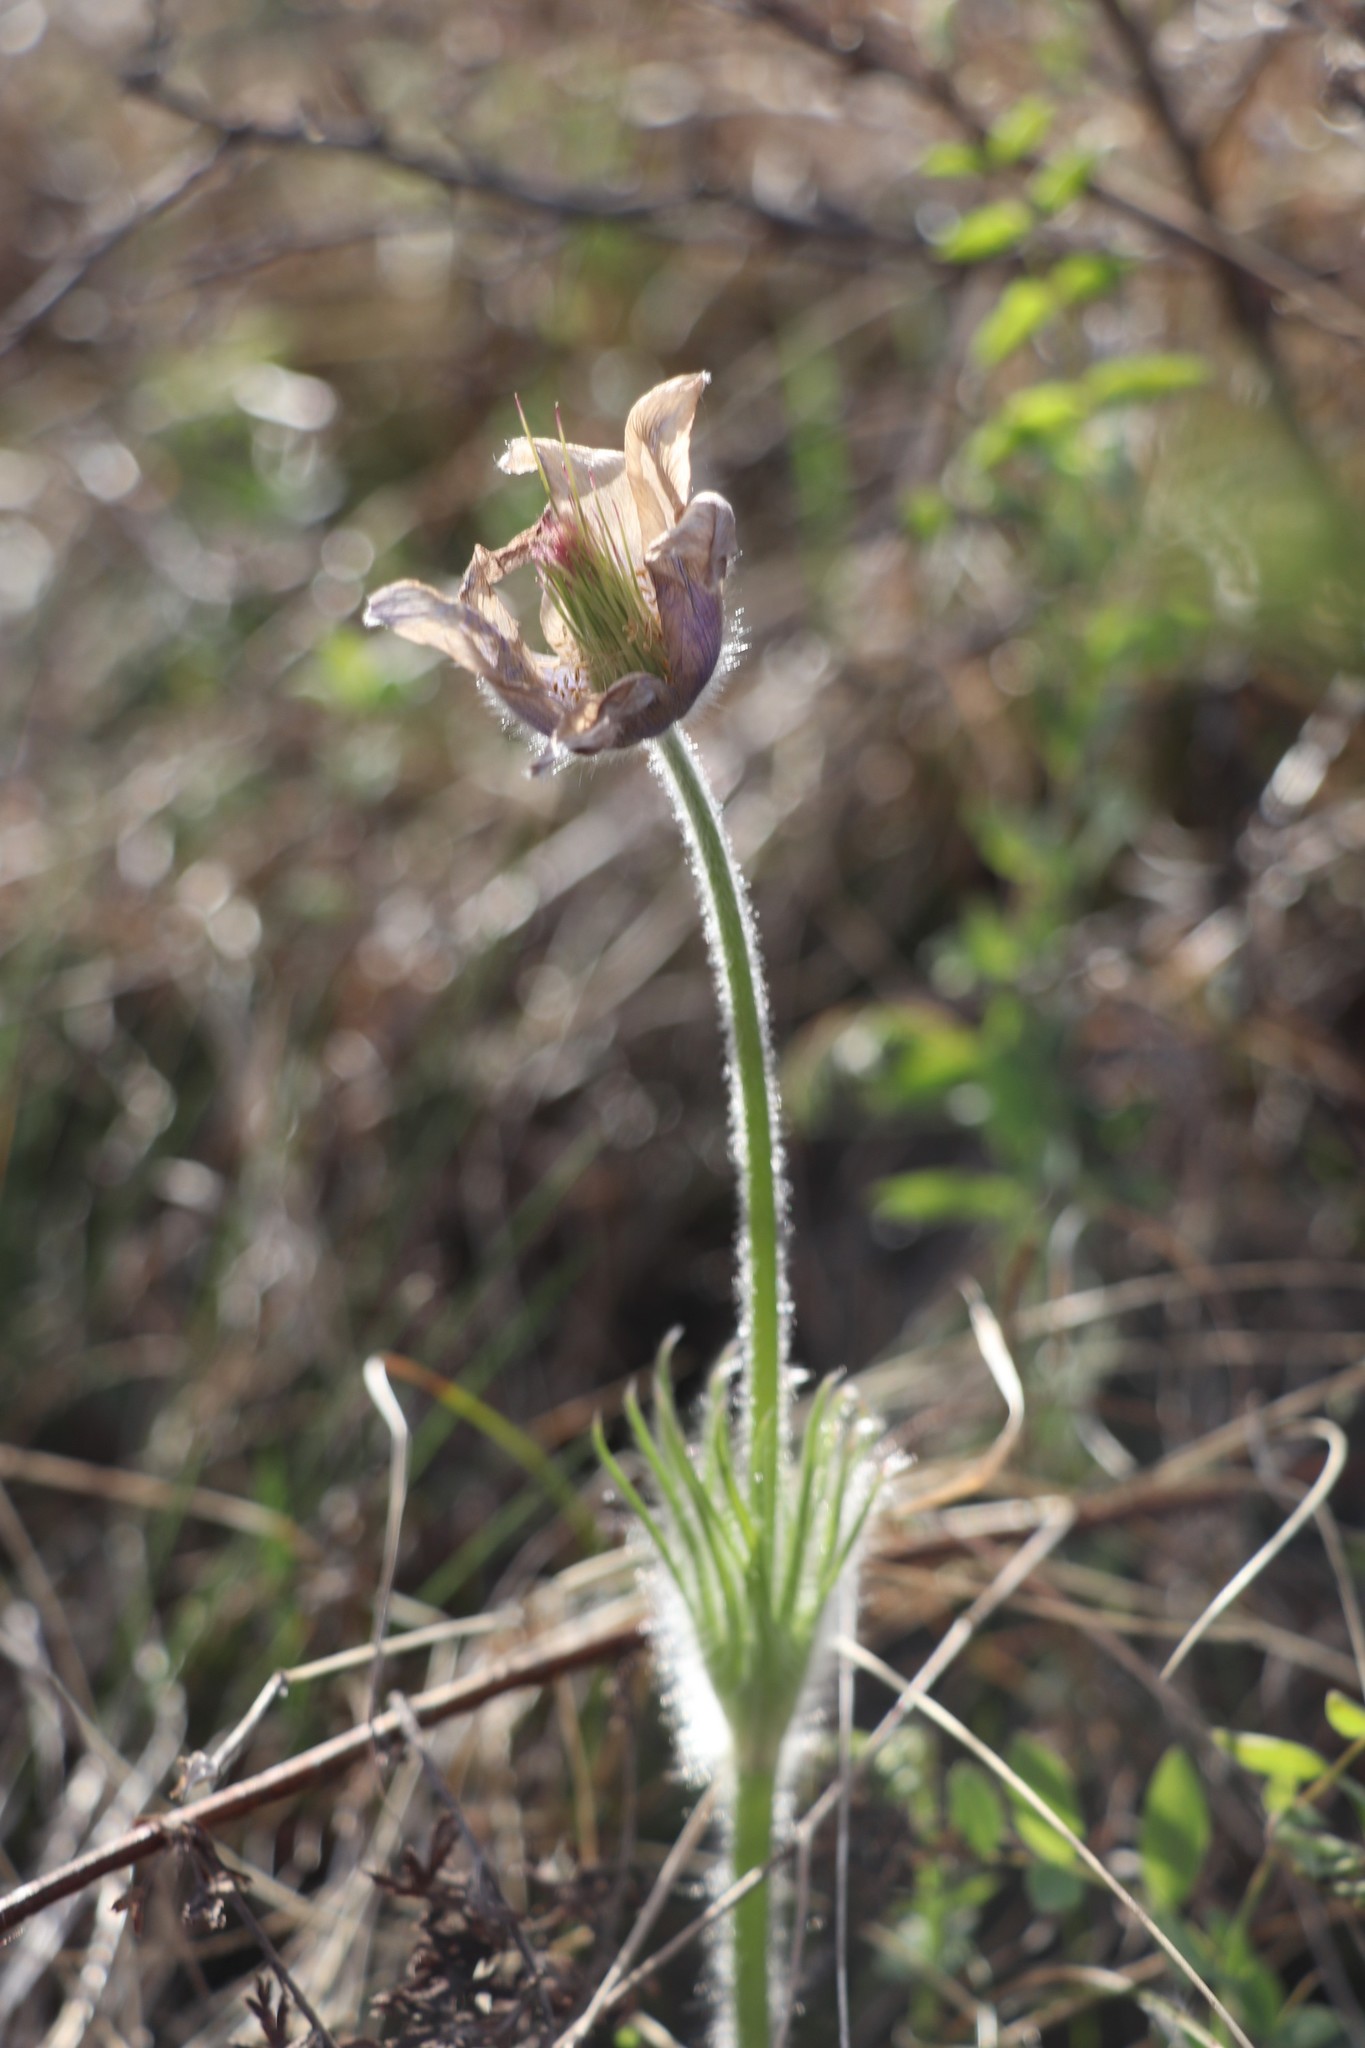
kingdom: Plantae
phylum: Tracheophyta
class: Magnoliopsida
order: Ranunculales
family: Ranunculaceae
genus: Pulsatilla
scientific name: Pulsatilla patens
